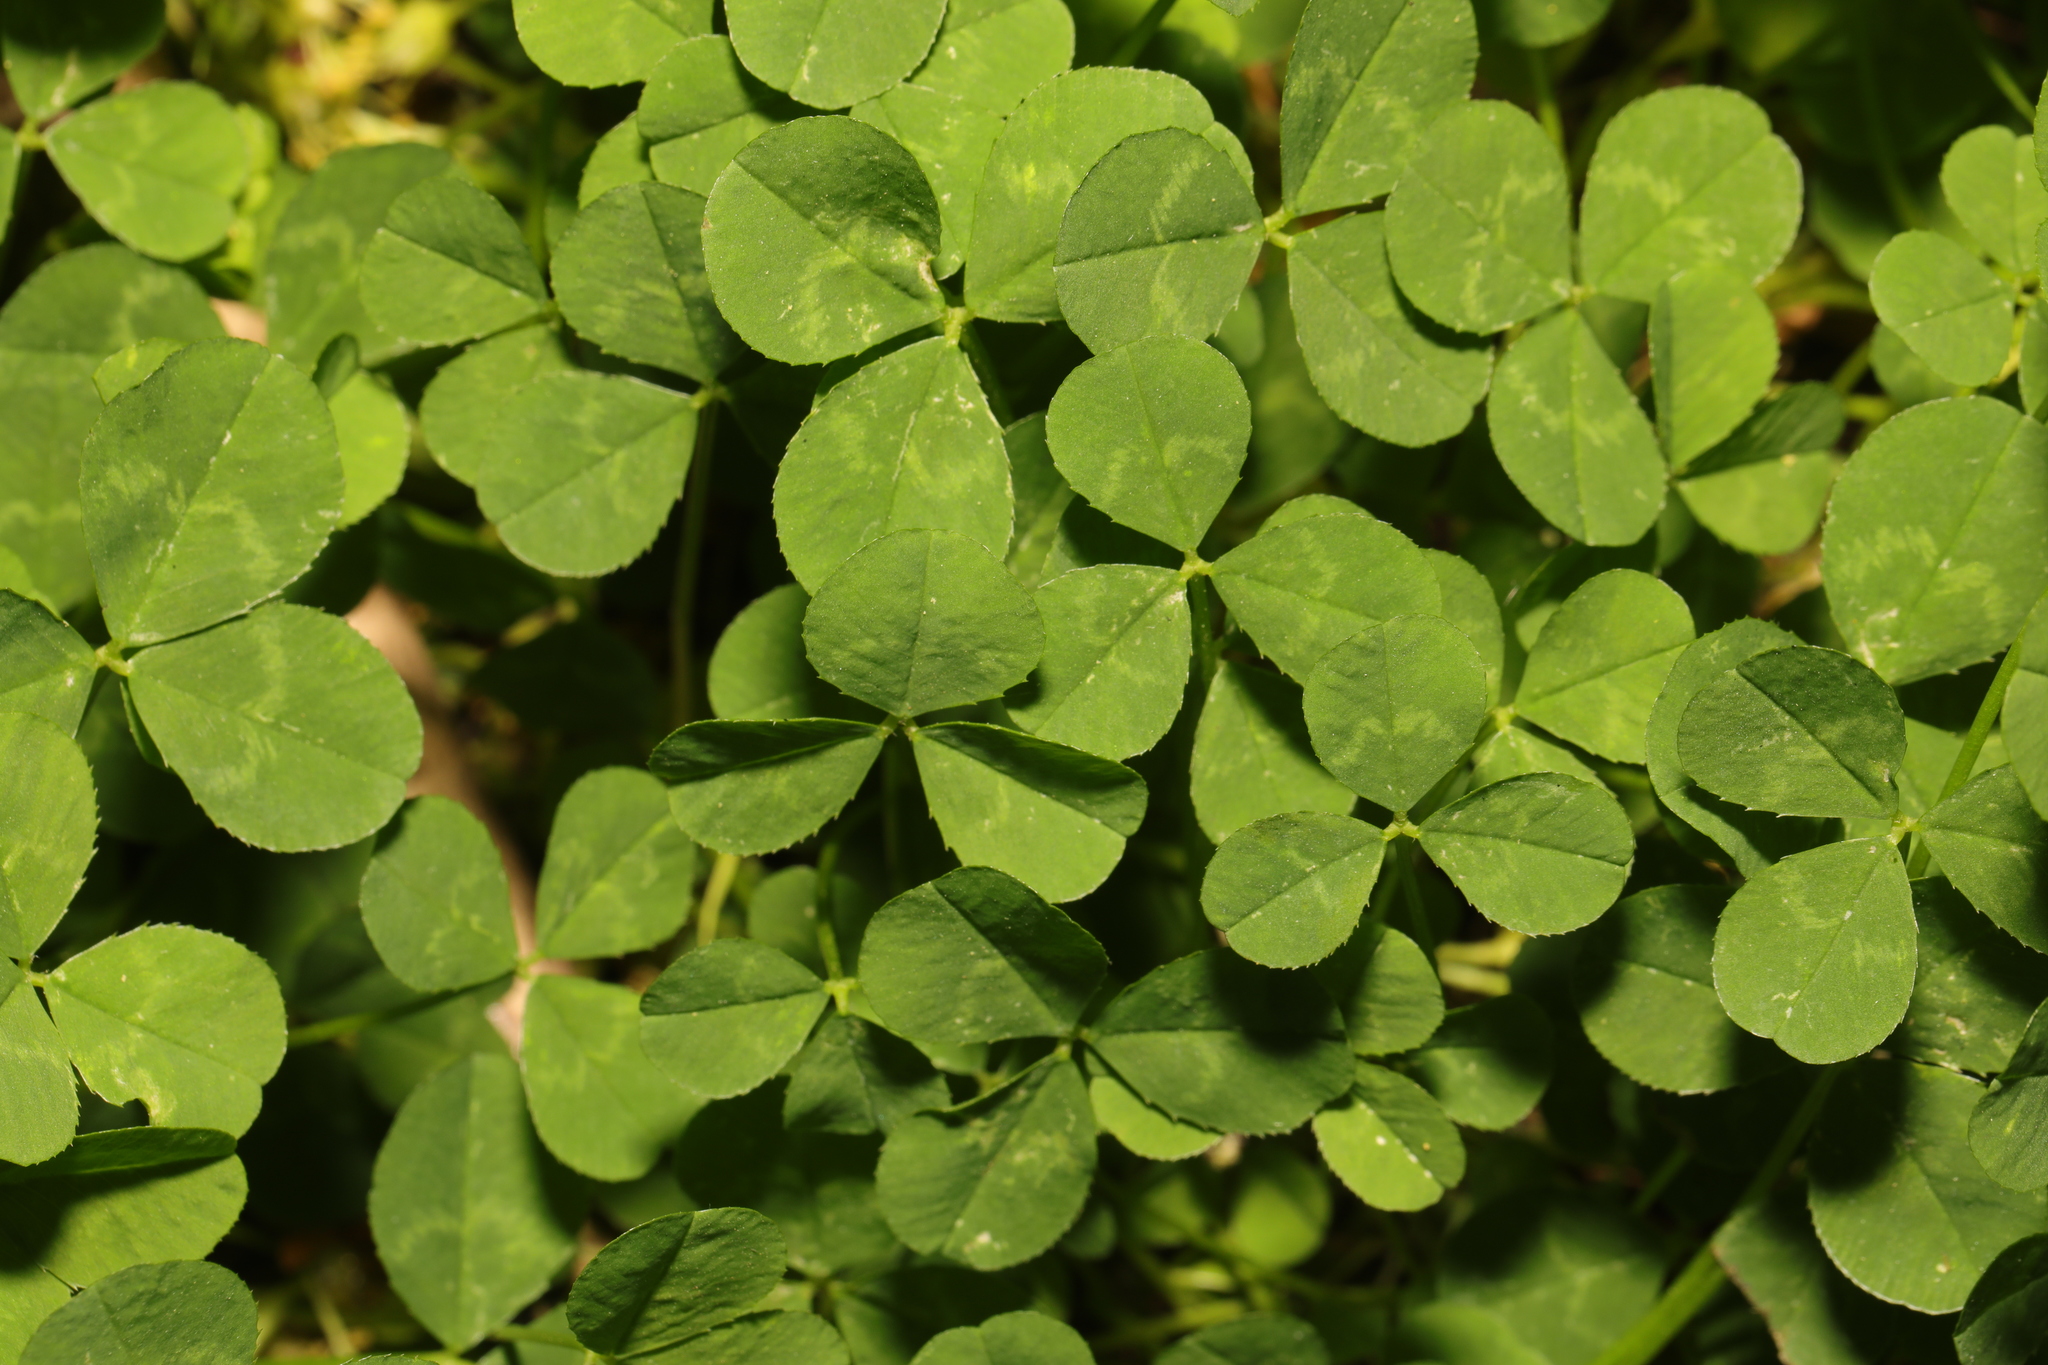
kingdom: Plantae
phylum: Tracheophyta
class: Magnoliopsida
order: Fabales
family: Fabaceae
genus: Trifolium
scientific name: Trifolium repens
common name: White clover
